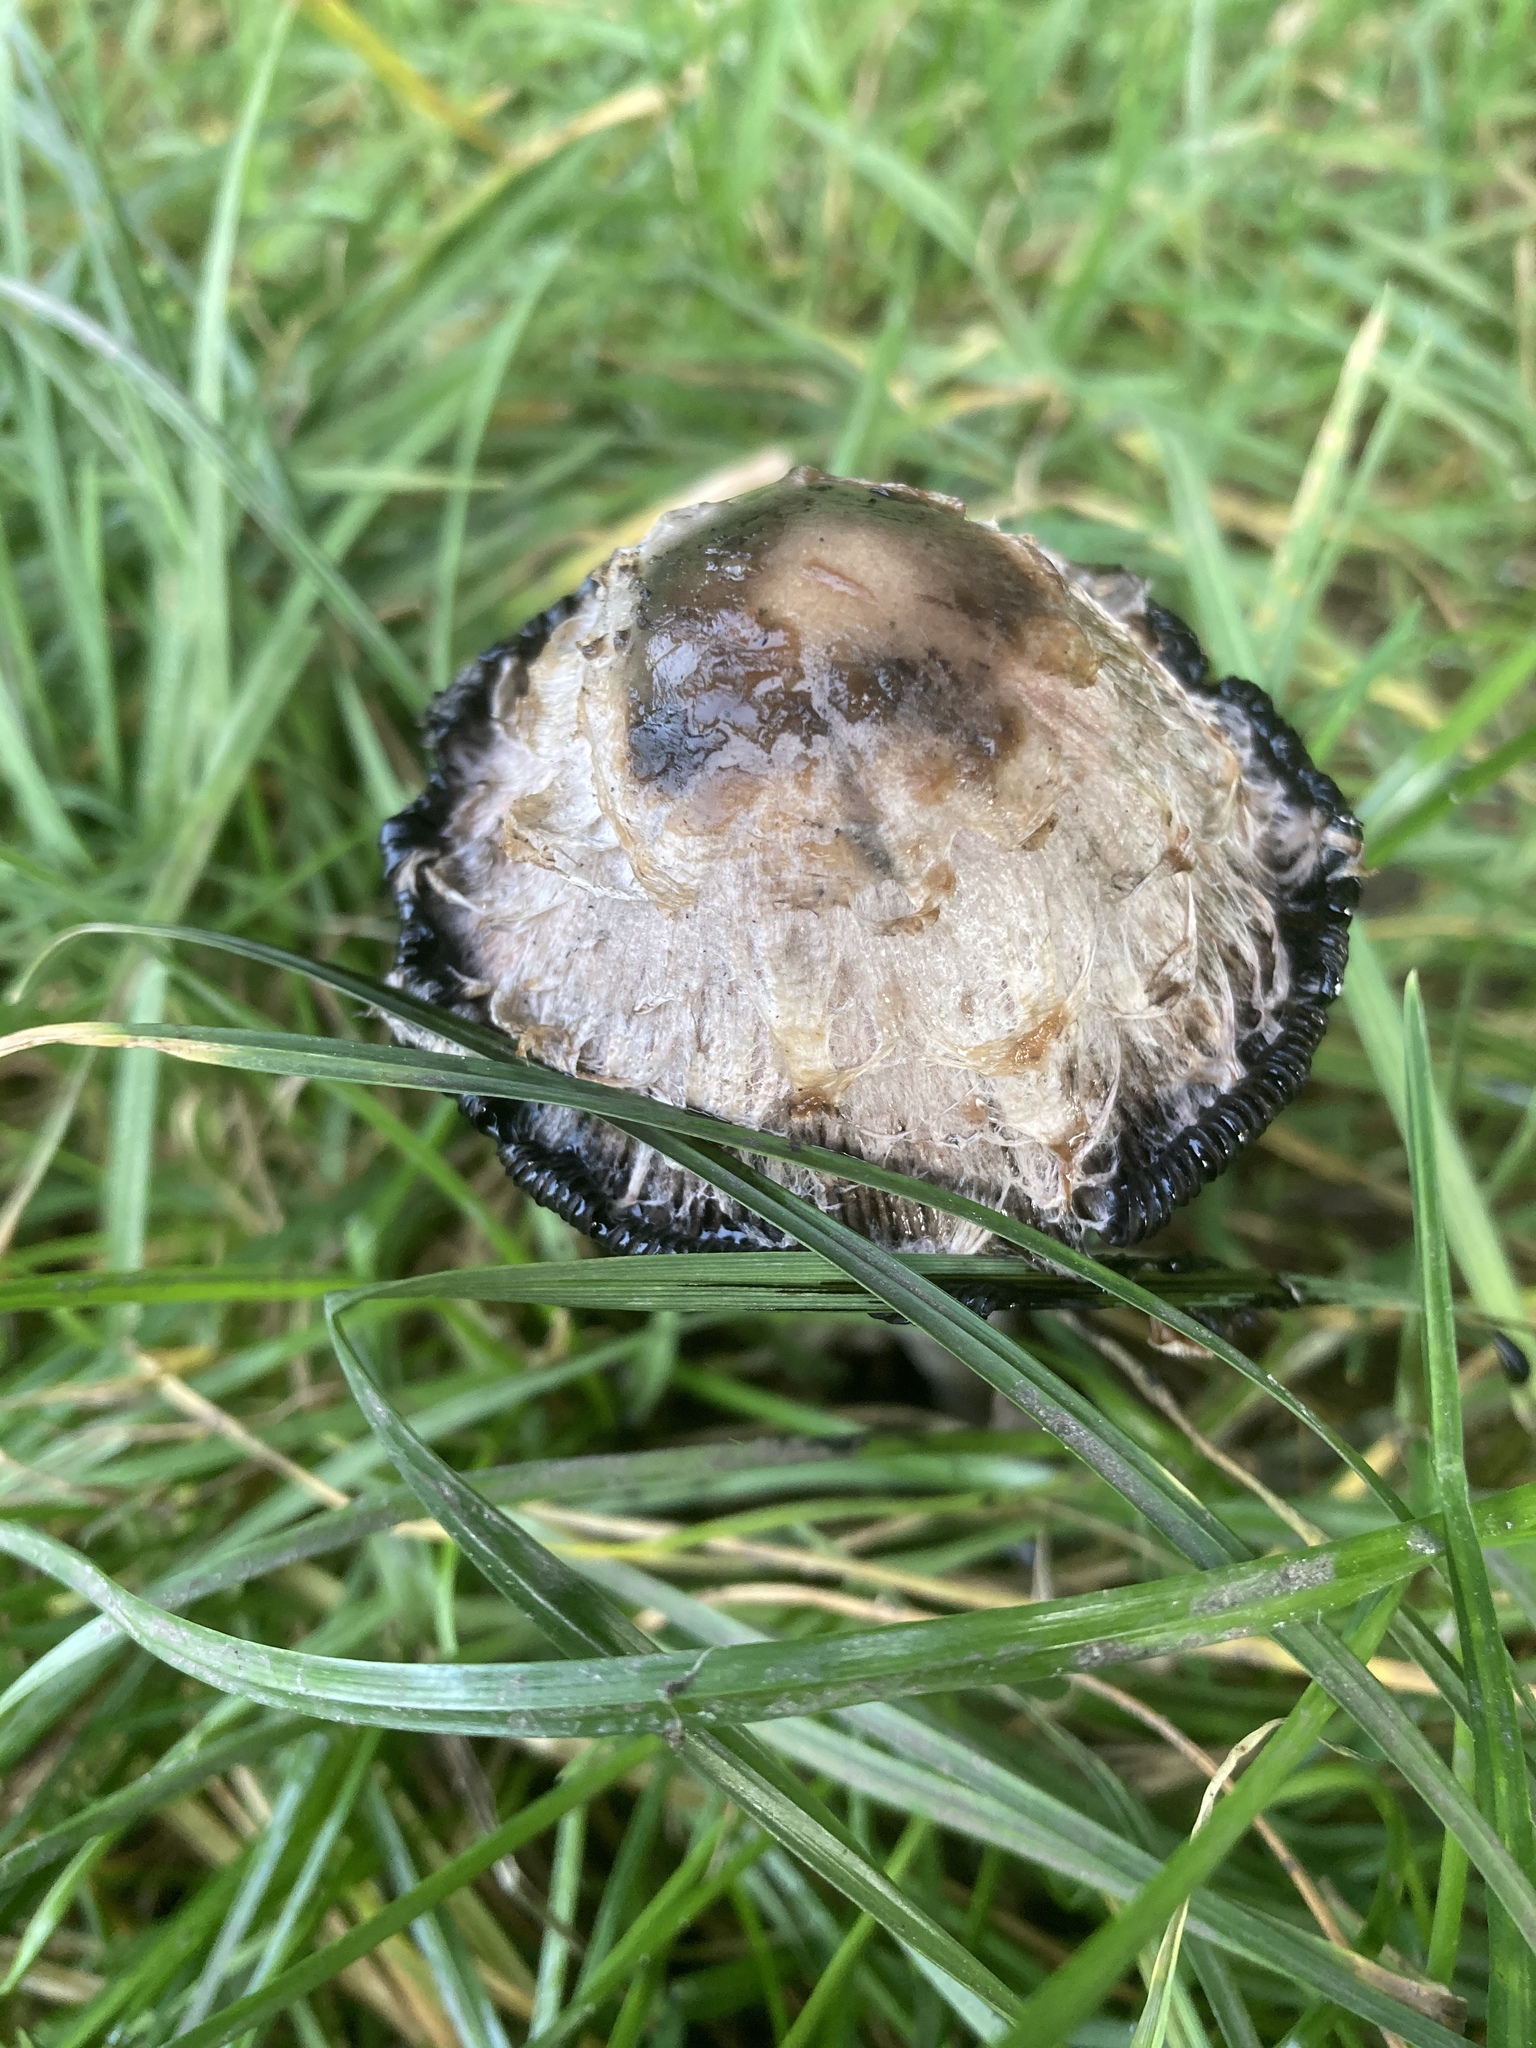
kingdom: Fungi
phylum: Basidiomycota
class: Agaricomycetes
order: Agaricales
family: Agaricaceae
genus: Coprinus
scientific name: Coprinus comatus
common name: Lawyer's wig
